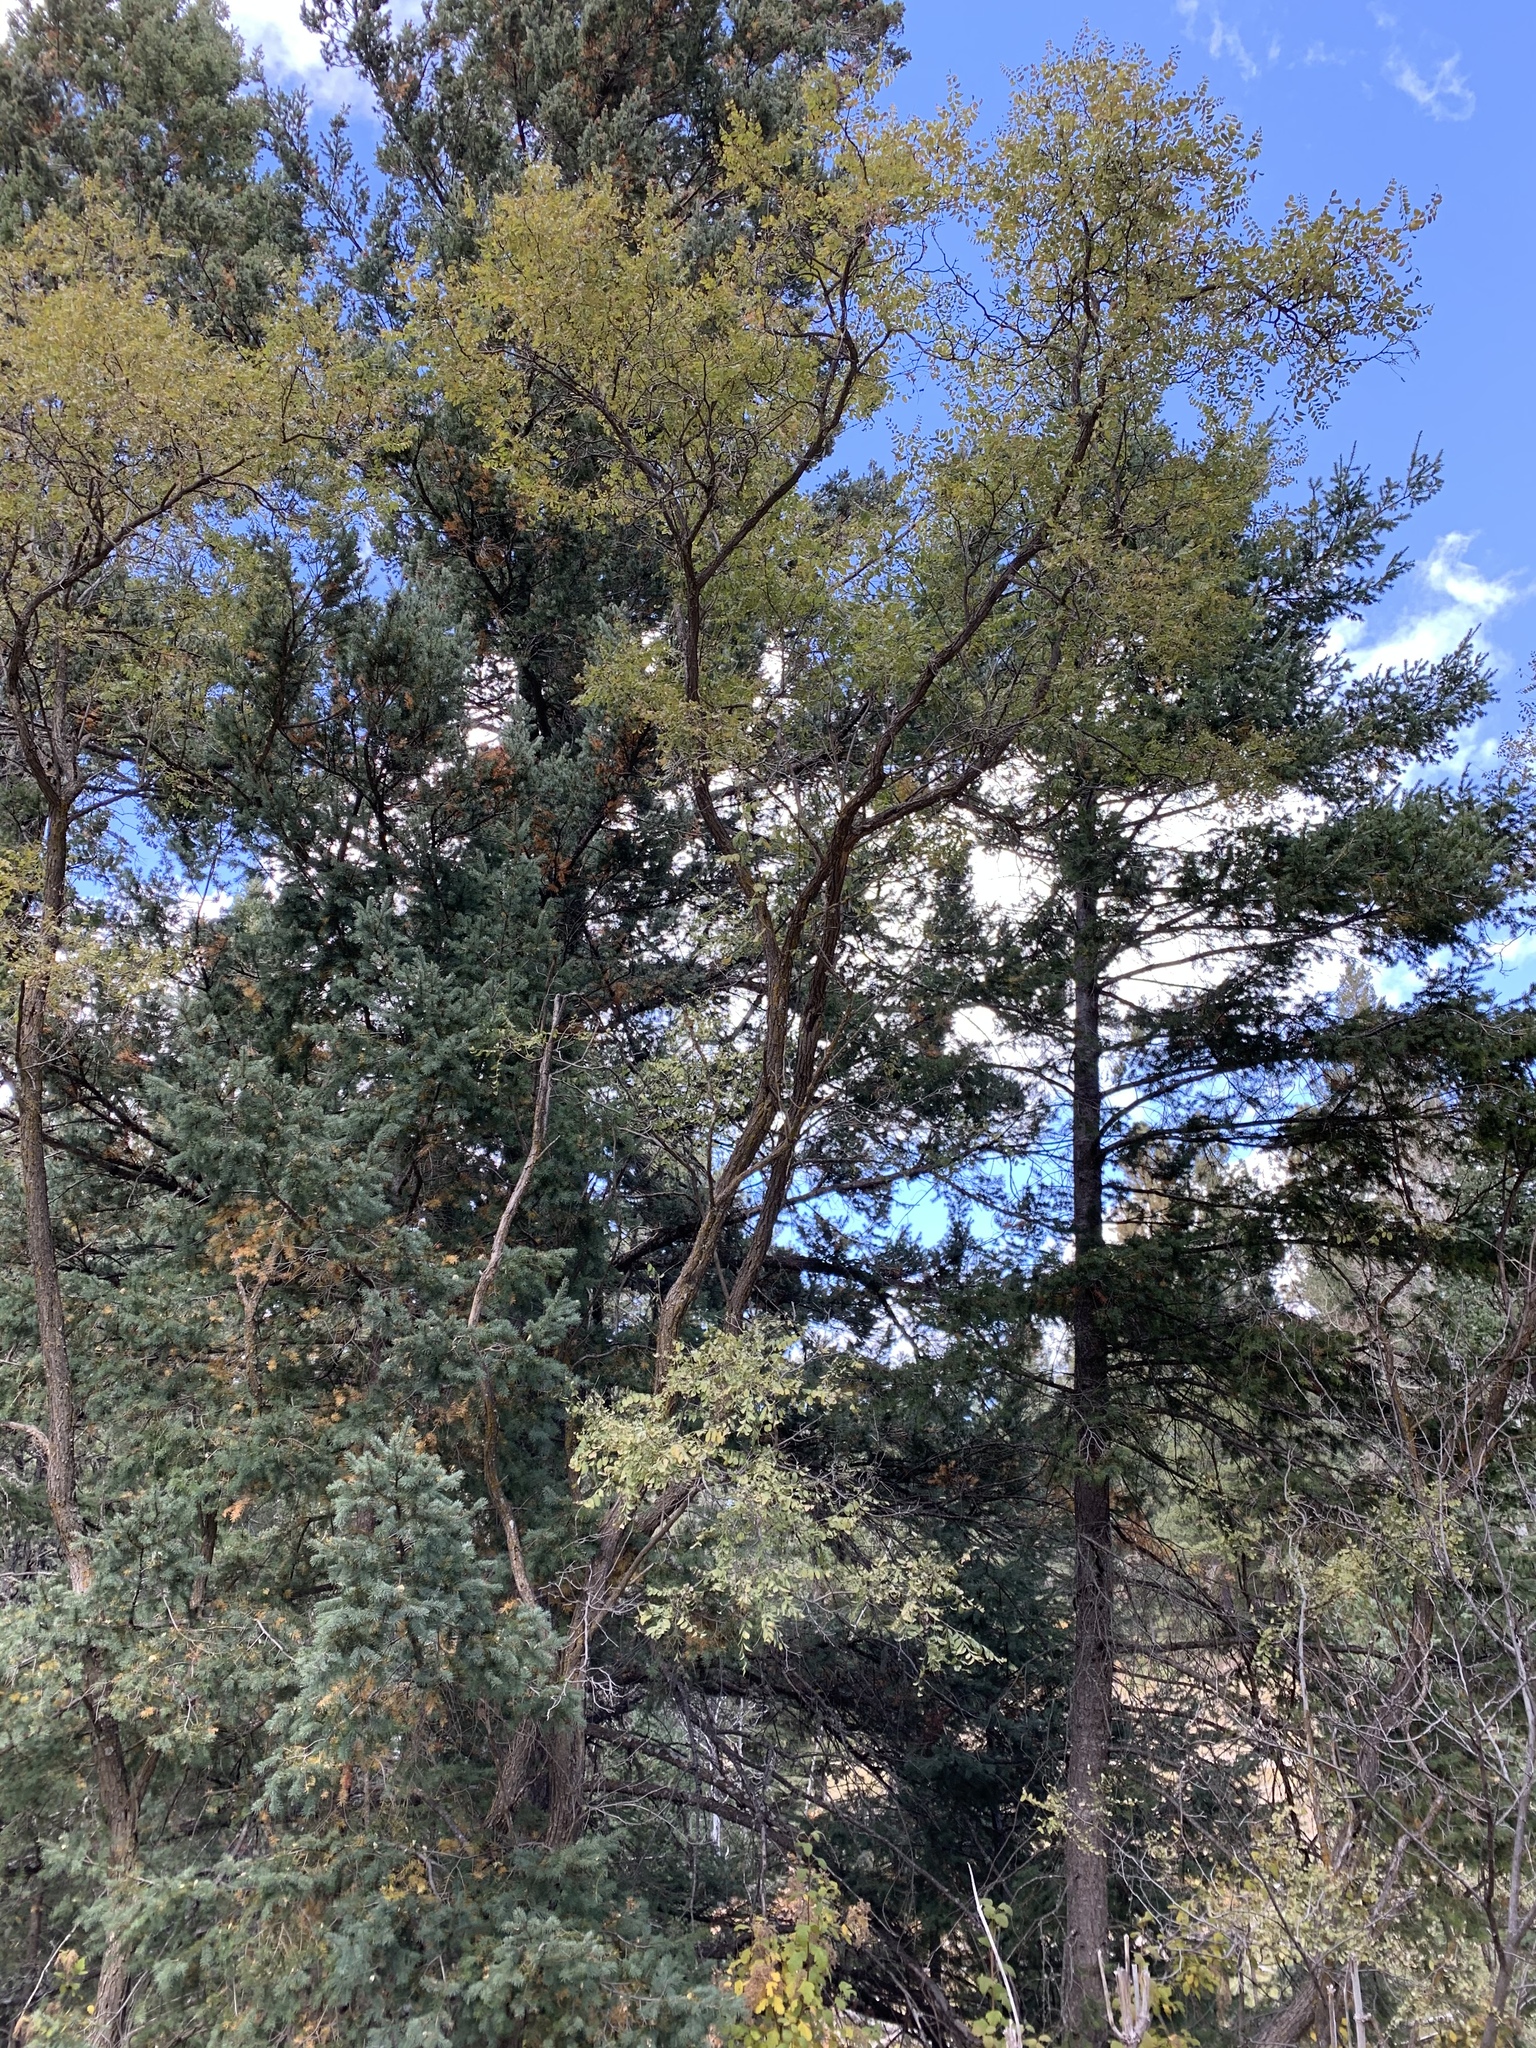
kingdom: Plantae
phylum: Tracheophyta
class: Magnoliopsida
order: Fabales
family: Fabaceae
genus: Robinia
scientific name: Robinia neomexicana
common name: New mexico locust
